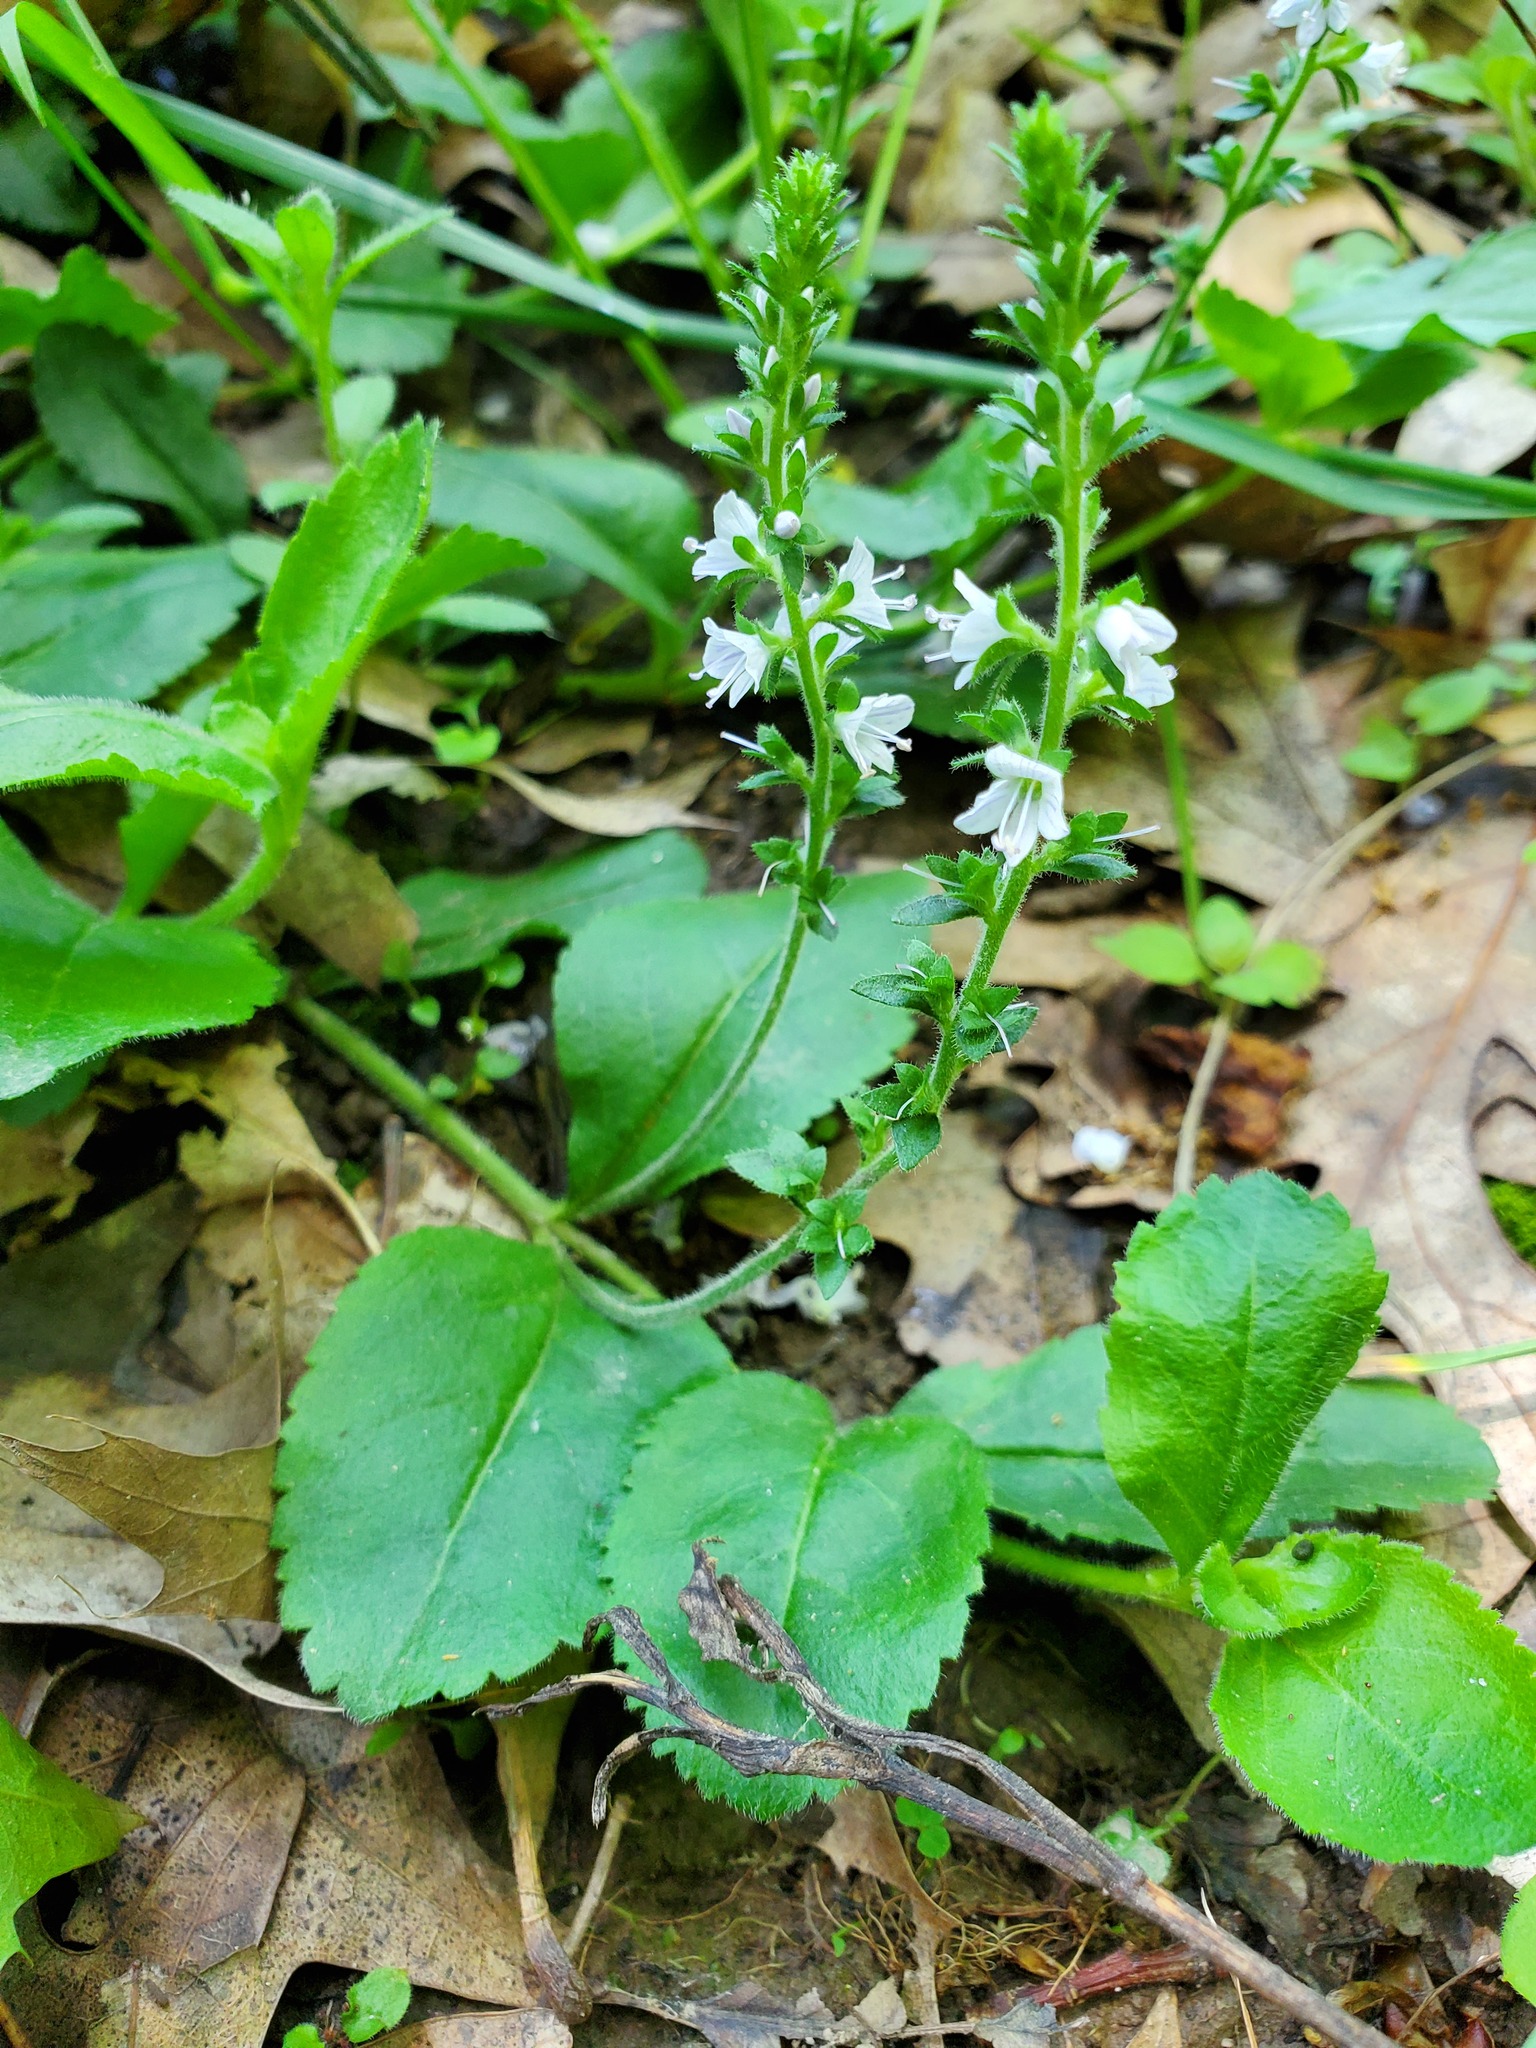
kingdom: Plantae
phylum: Tracheophyta
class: Magnoliopsida
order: Lamiales
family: Plantaginaceae
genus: Veronica
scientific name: Veronica officinalis
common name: Common speedwell
